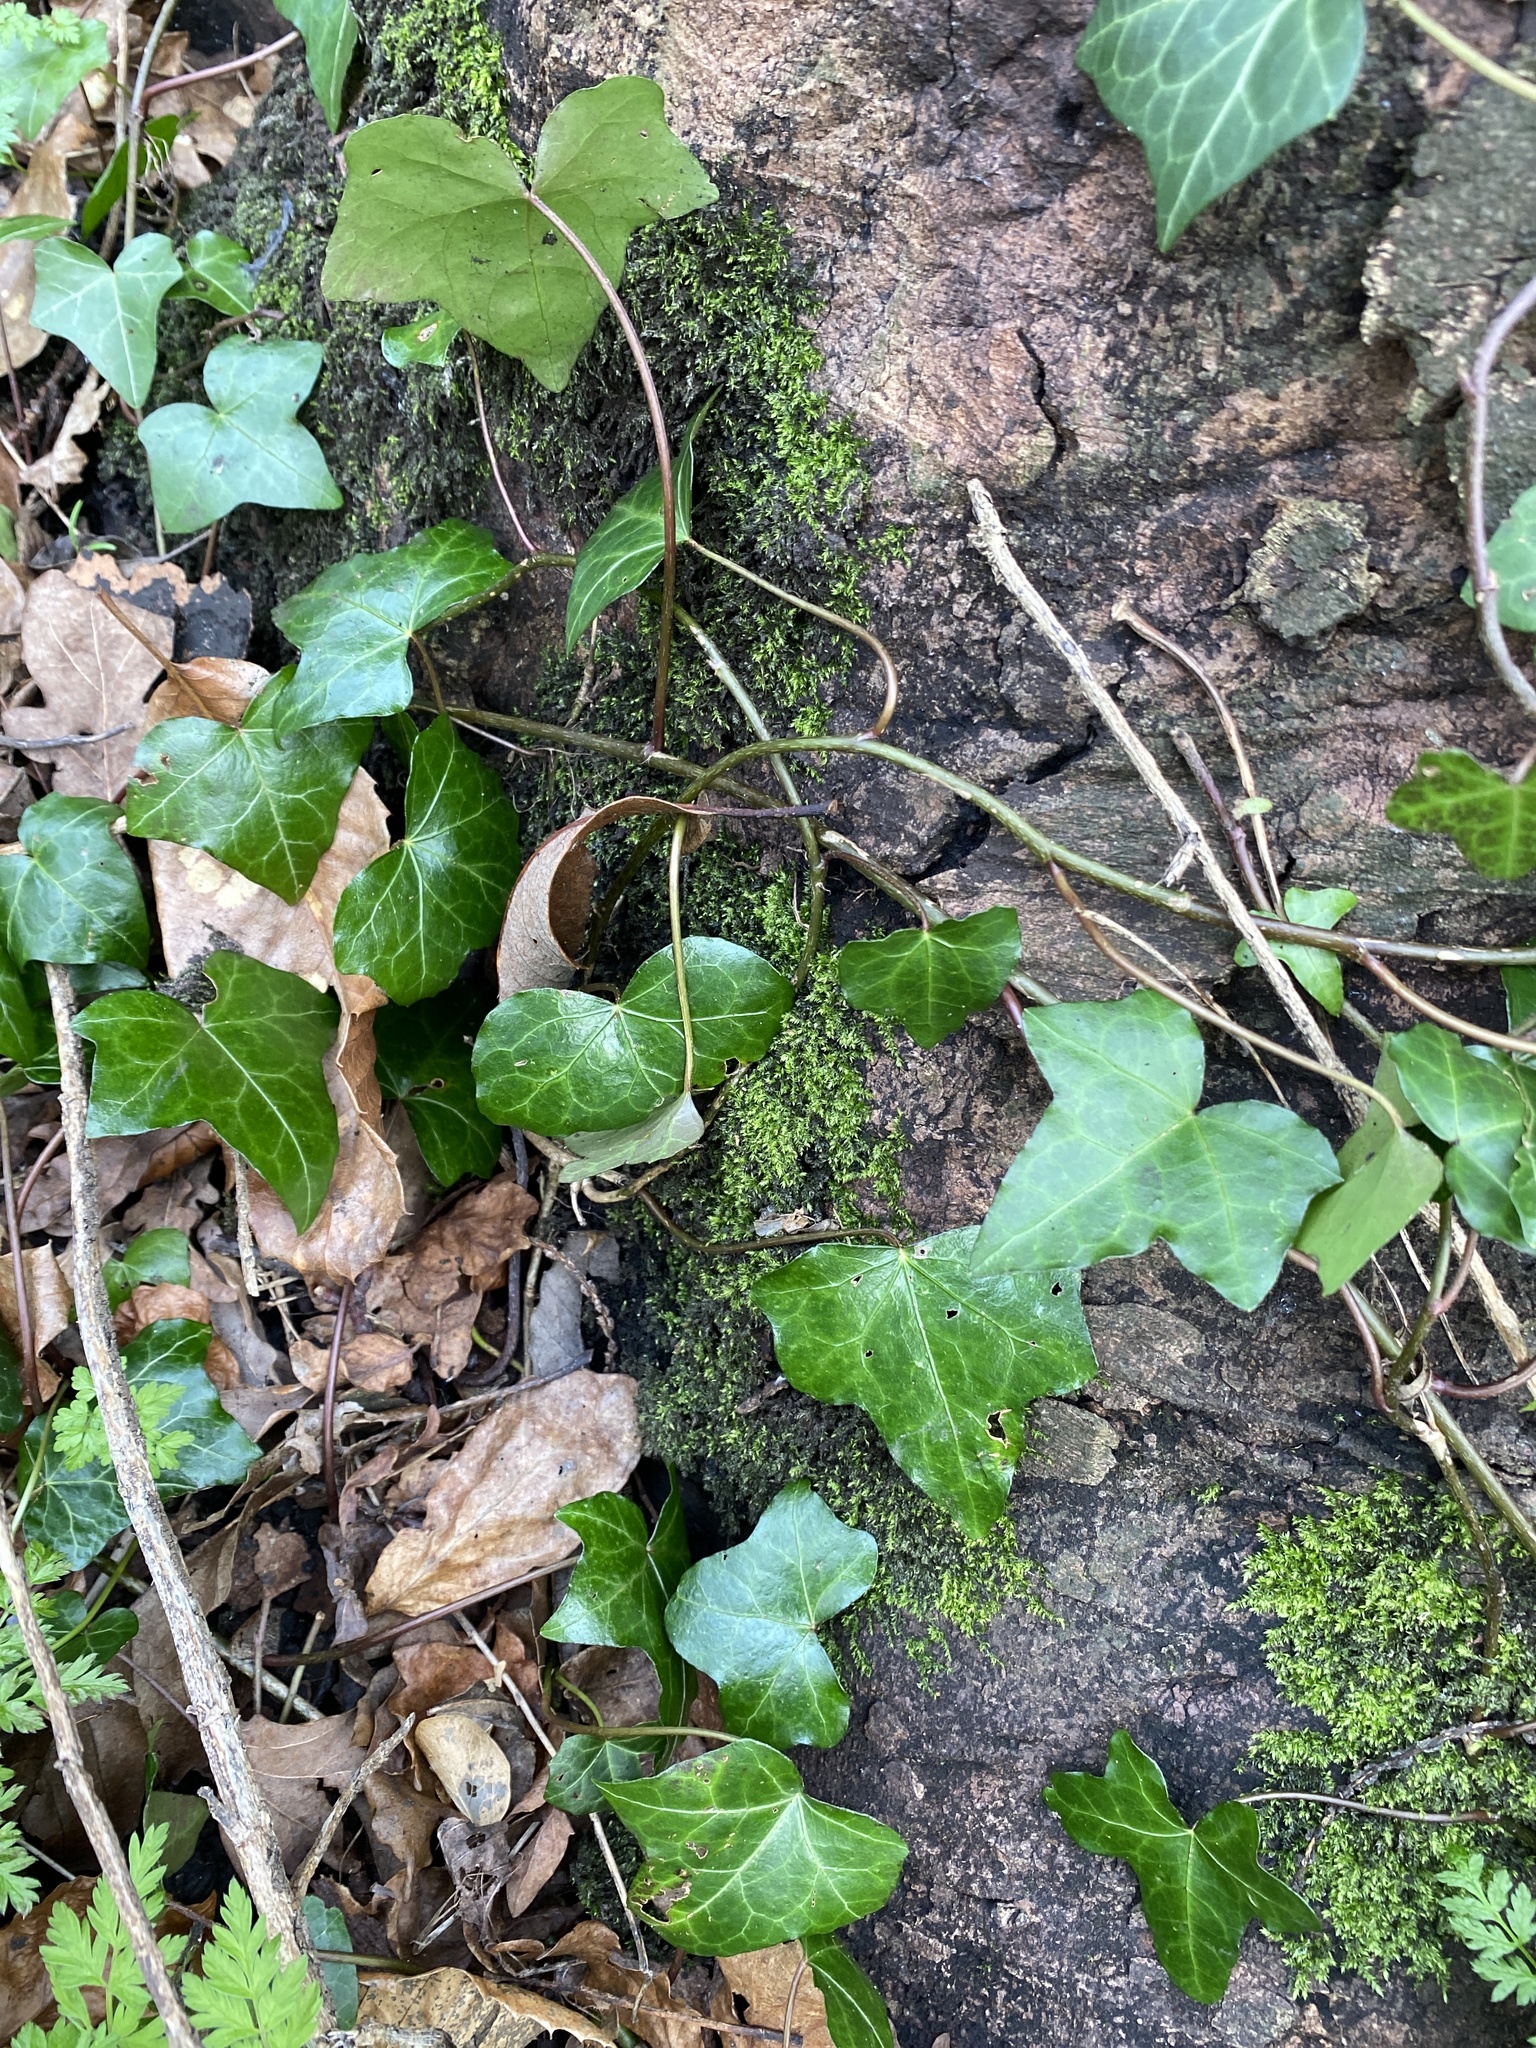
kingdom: Plantae
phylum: Tracheophyta
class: Magnoliopsida
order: Apiales
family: Araliaceae
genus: Hedera
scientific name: Hedera helix
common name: Ivy
